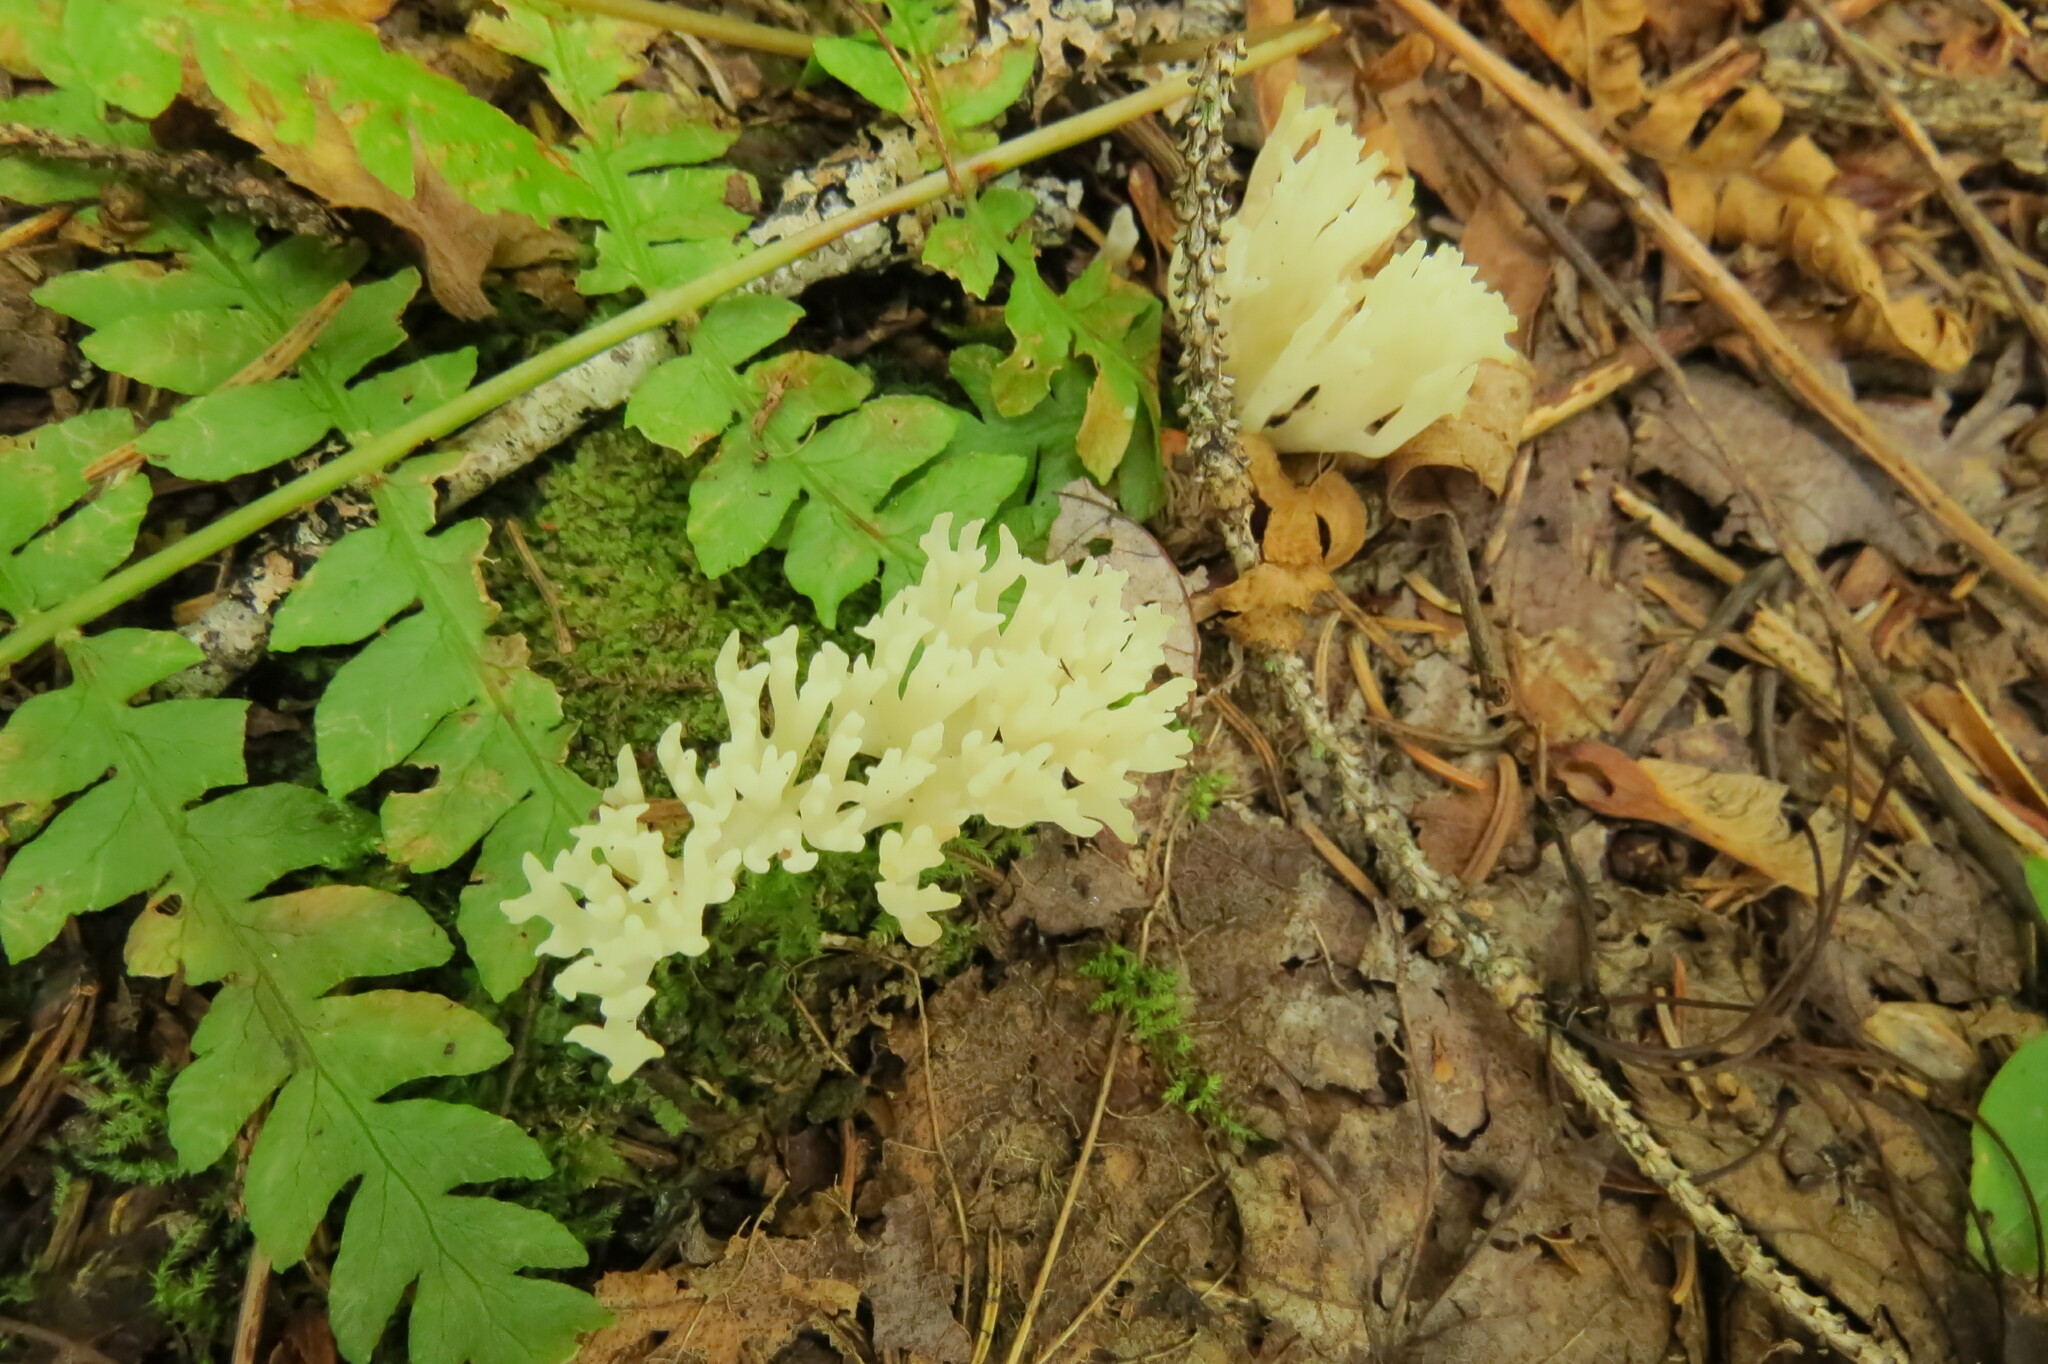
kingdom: Fungi
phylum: Basidiomycota
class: Agaricomycetes
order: Agaricales
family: Clavariaceae
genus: Ramariopsis
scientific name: Ramariopsis kunzei
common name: Ivory coral
